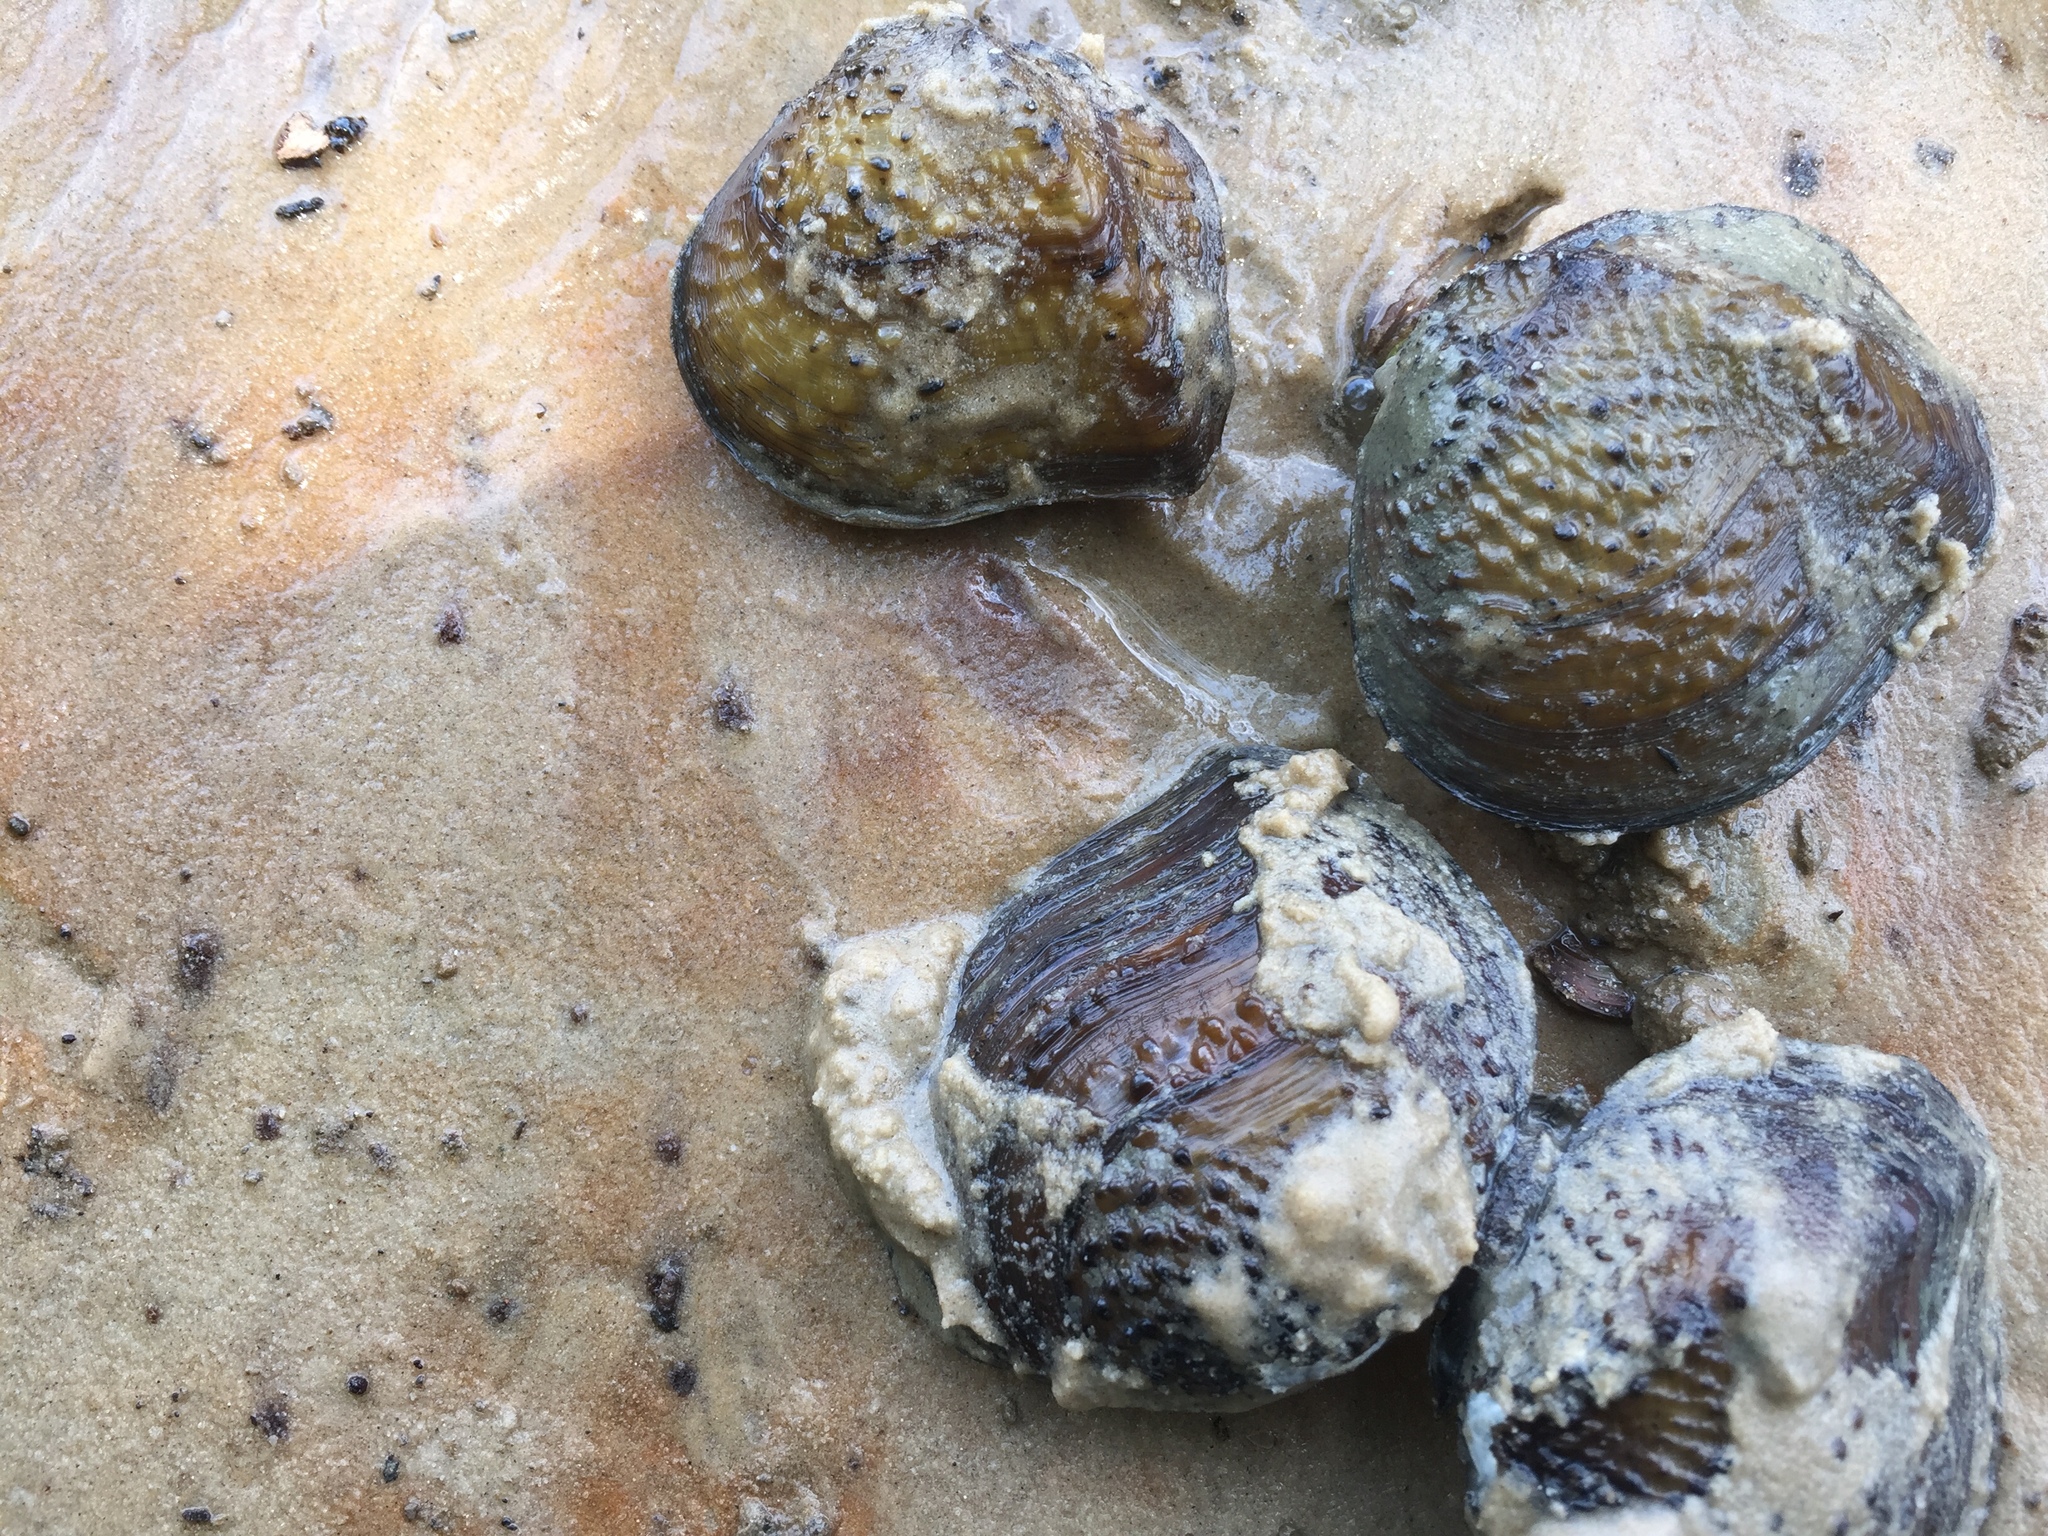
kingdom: Animalia
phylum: Mollusca
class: Bivalvia
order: Unionida
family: Unionidae
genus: Quadrula
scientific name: Quadrula quadrula
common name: Mapleleaf
